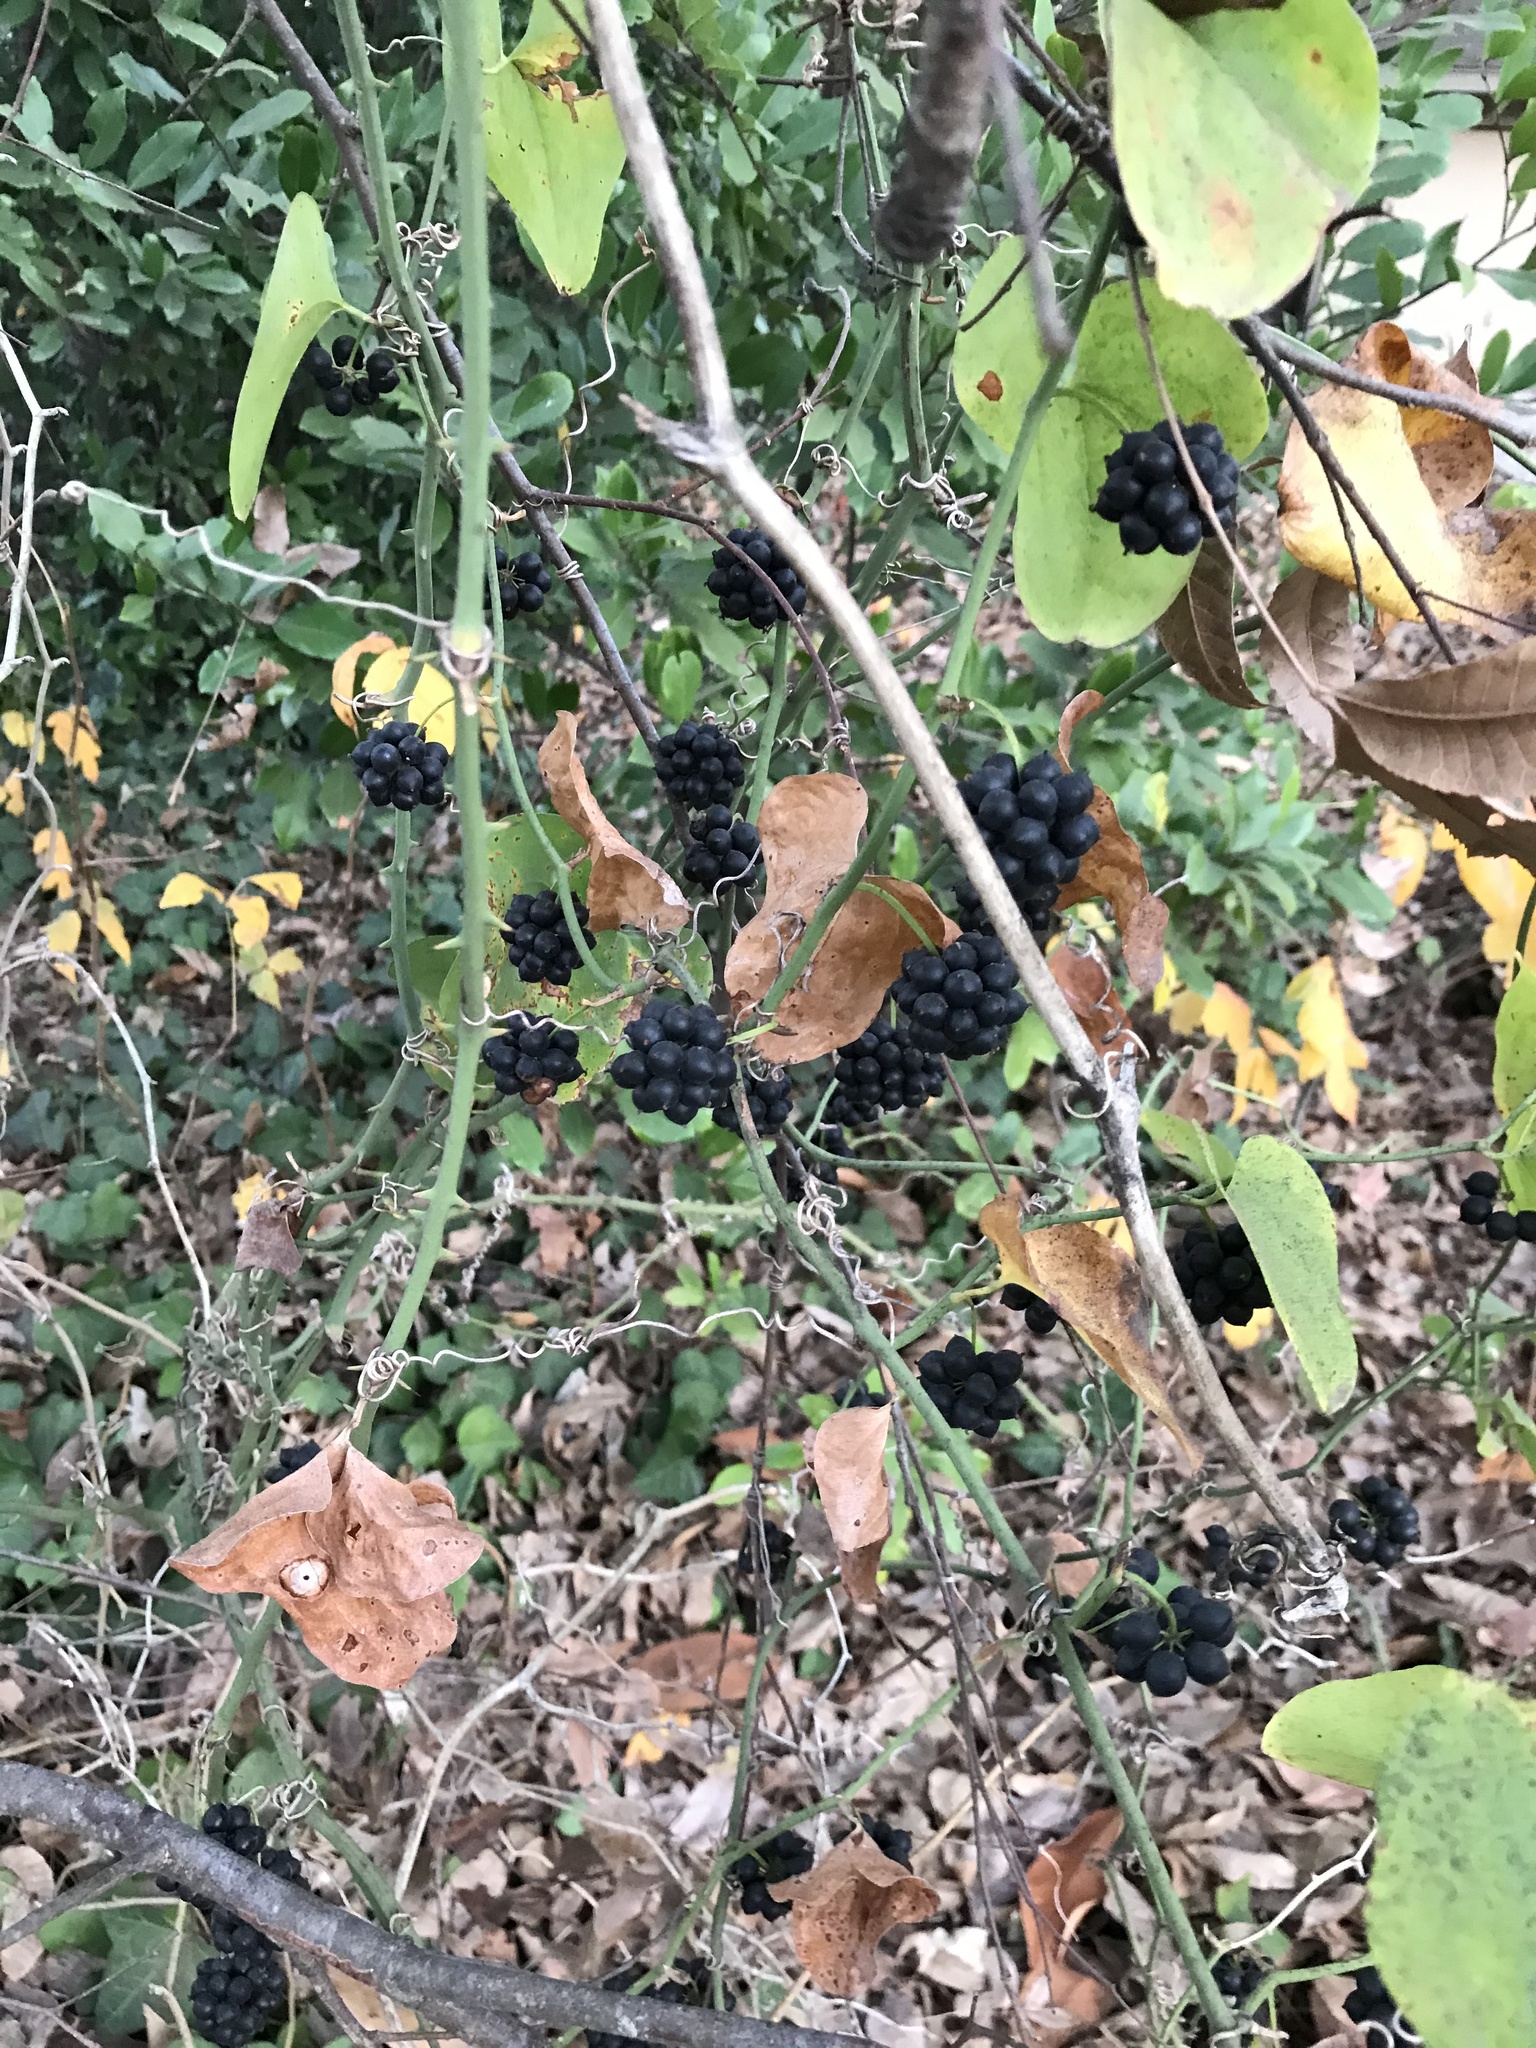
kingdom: Plantae
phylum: Tracheophyta
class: Liliopsida
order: Liliales
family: Smilacaceae
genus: Smilax
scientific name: Smilax bona-nox
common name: Catbrier
